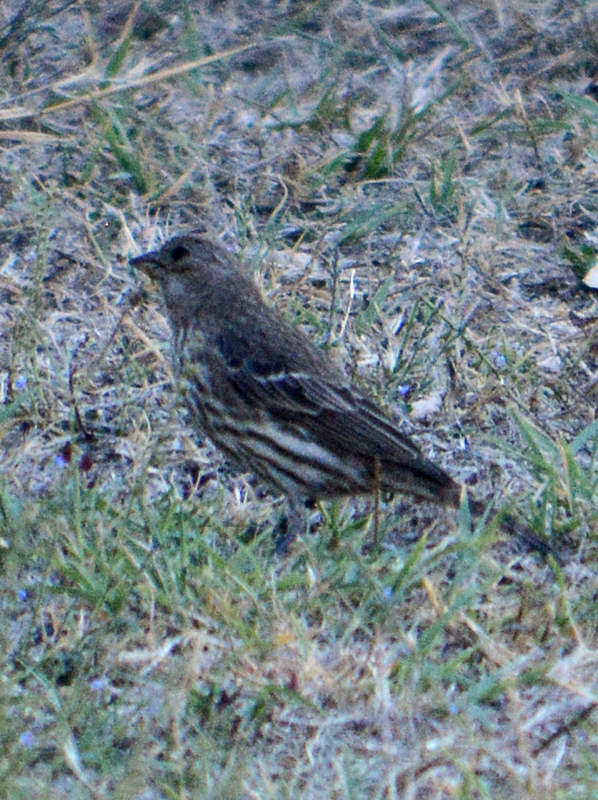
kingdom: Animalia
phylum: Chordata
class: Aves
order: Passeriformes
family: Fringillidae
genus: Haemorhous
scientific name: Haemorhous mexicanus
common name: House finch
